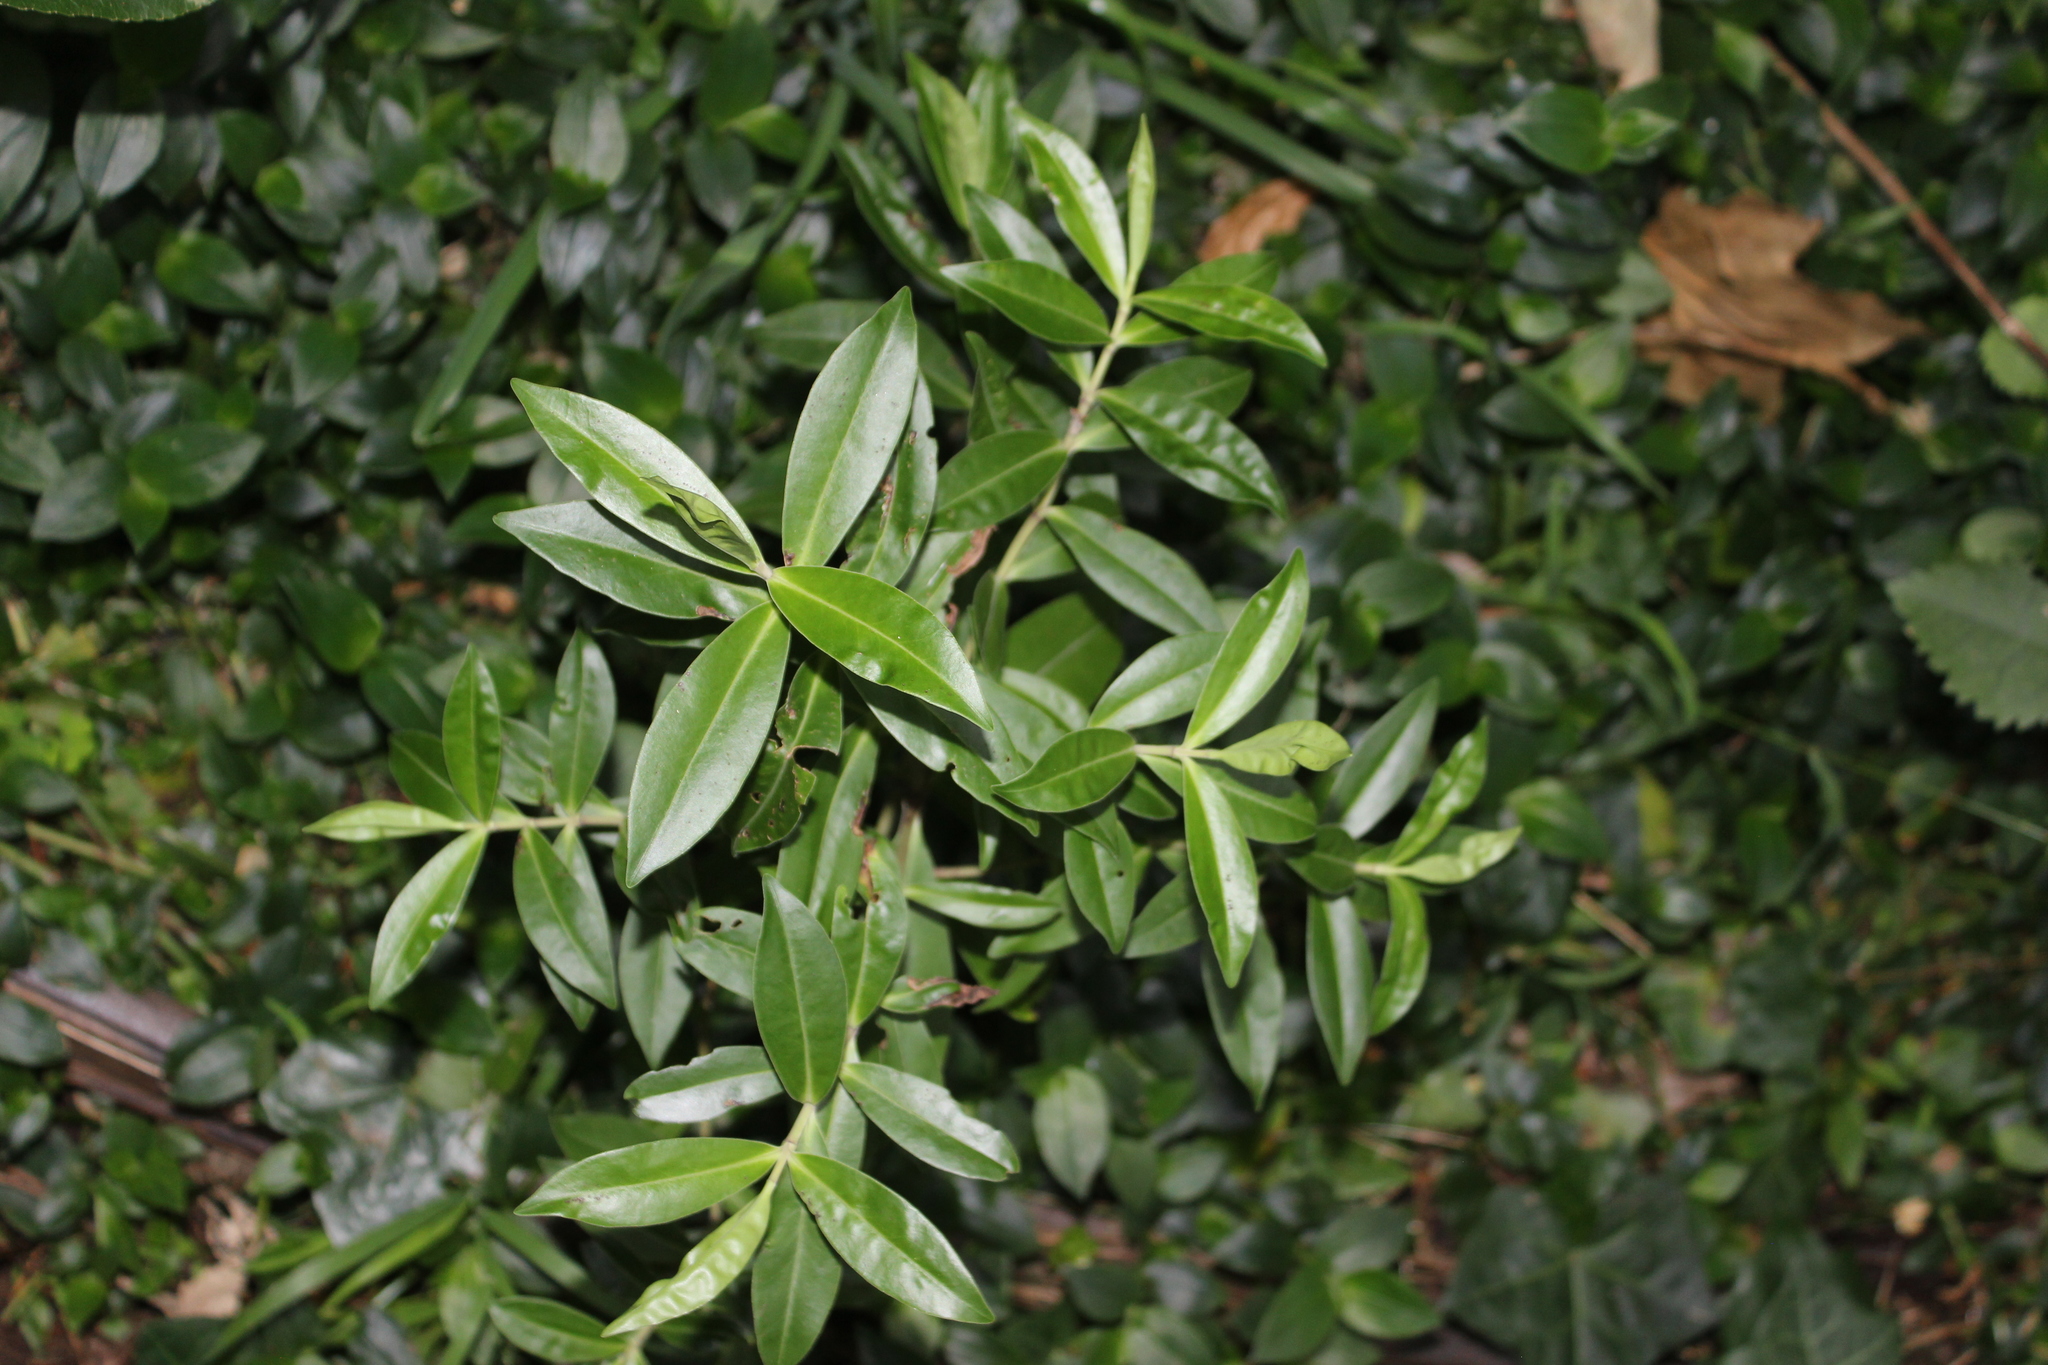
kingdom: Plantae
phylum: Tracheophyta
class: Magnoliopsida
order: Lamiales
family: Plantaginaceae
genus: Veronica
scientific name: Veronica stricta
